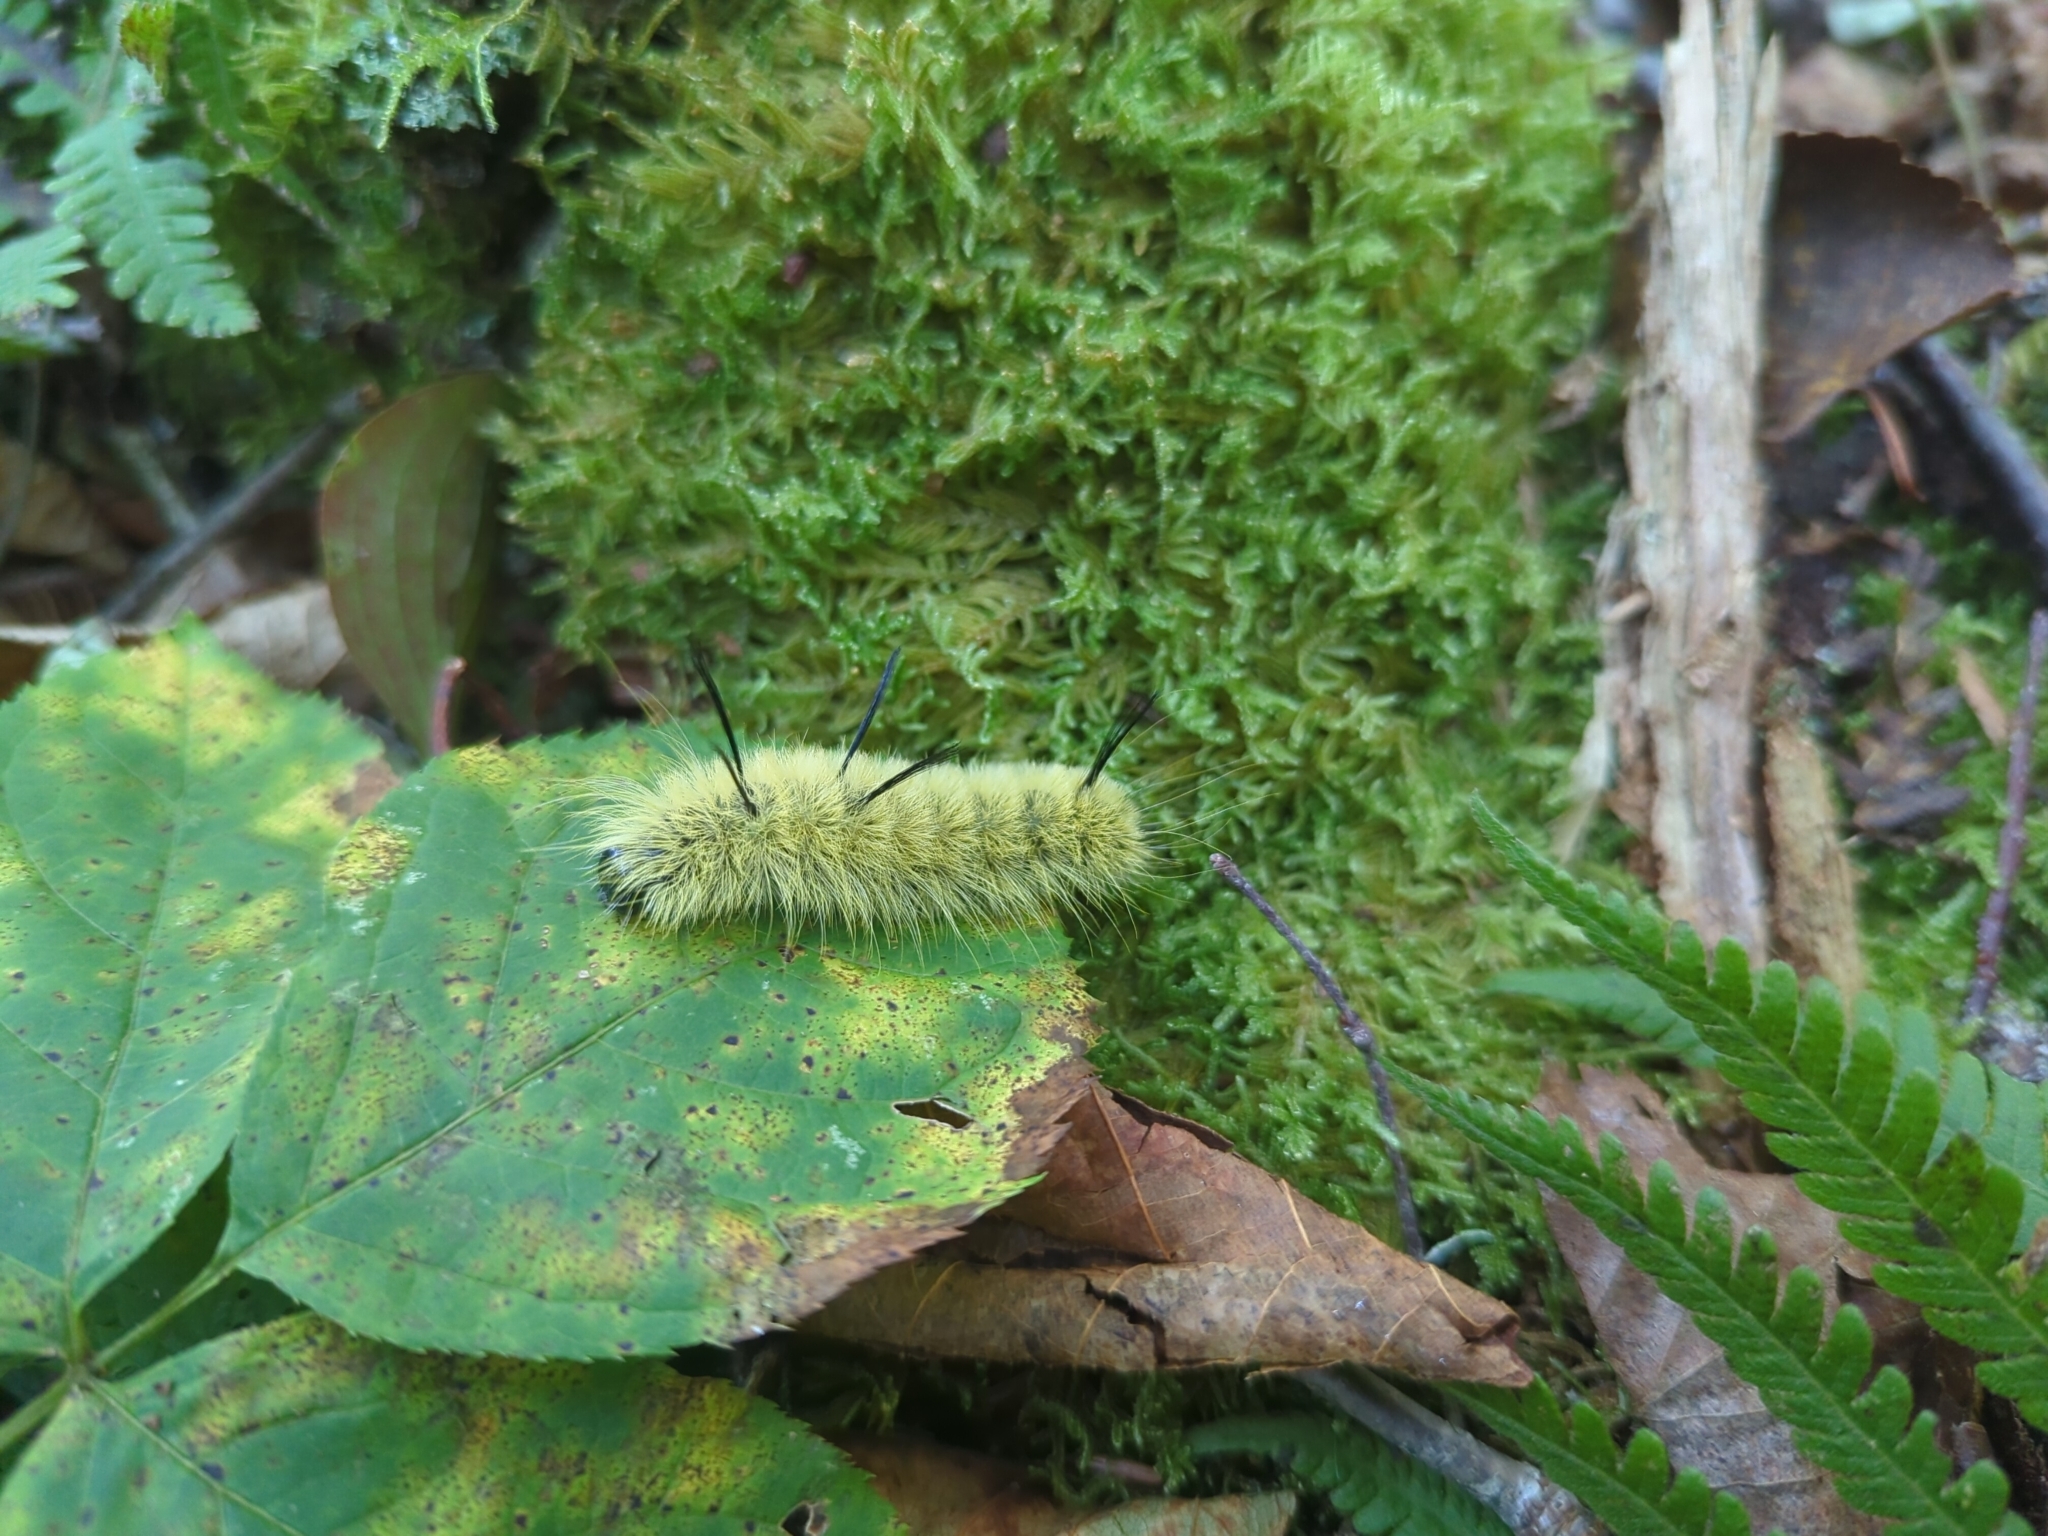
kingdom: Animalia
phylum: Arthropoda
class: Insecta
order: Lepidoptera
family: Noctuidae
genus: Acronicta
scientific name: Acronicta americana
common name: American dagger
